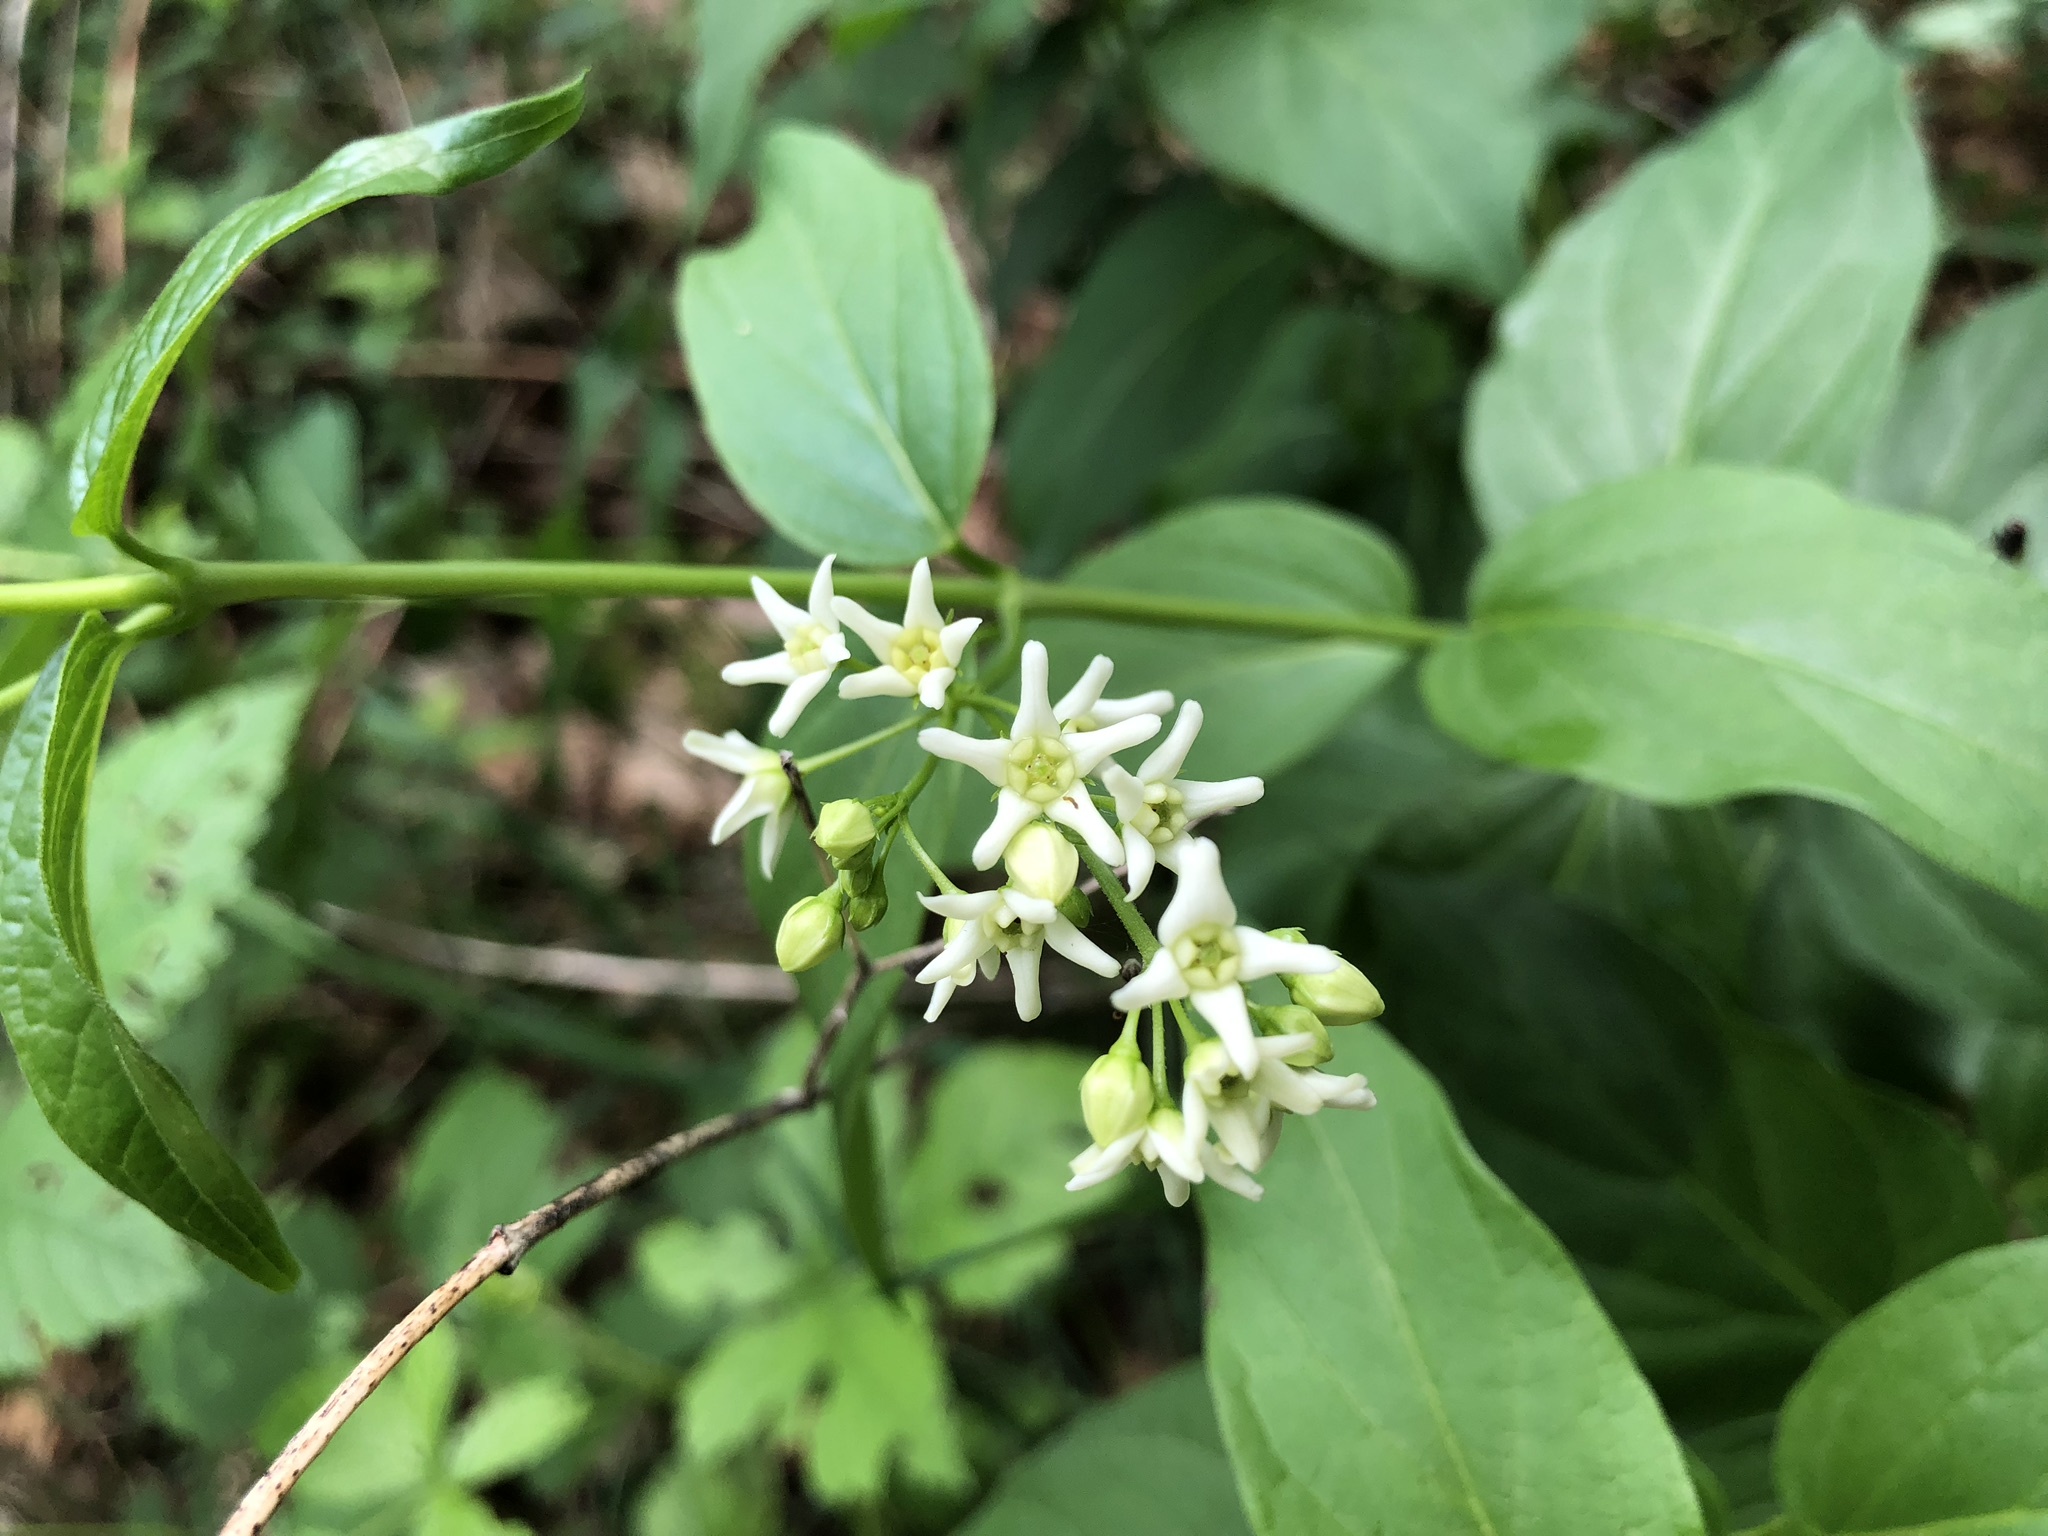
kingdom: Plantae
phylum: Tracheophyta
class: Magnoliopsida
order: Gentianales
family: Apocynaceae
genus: Vincetoxicum
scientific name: Vincetoxicum hirundinaria
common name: White swallowwort
